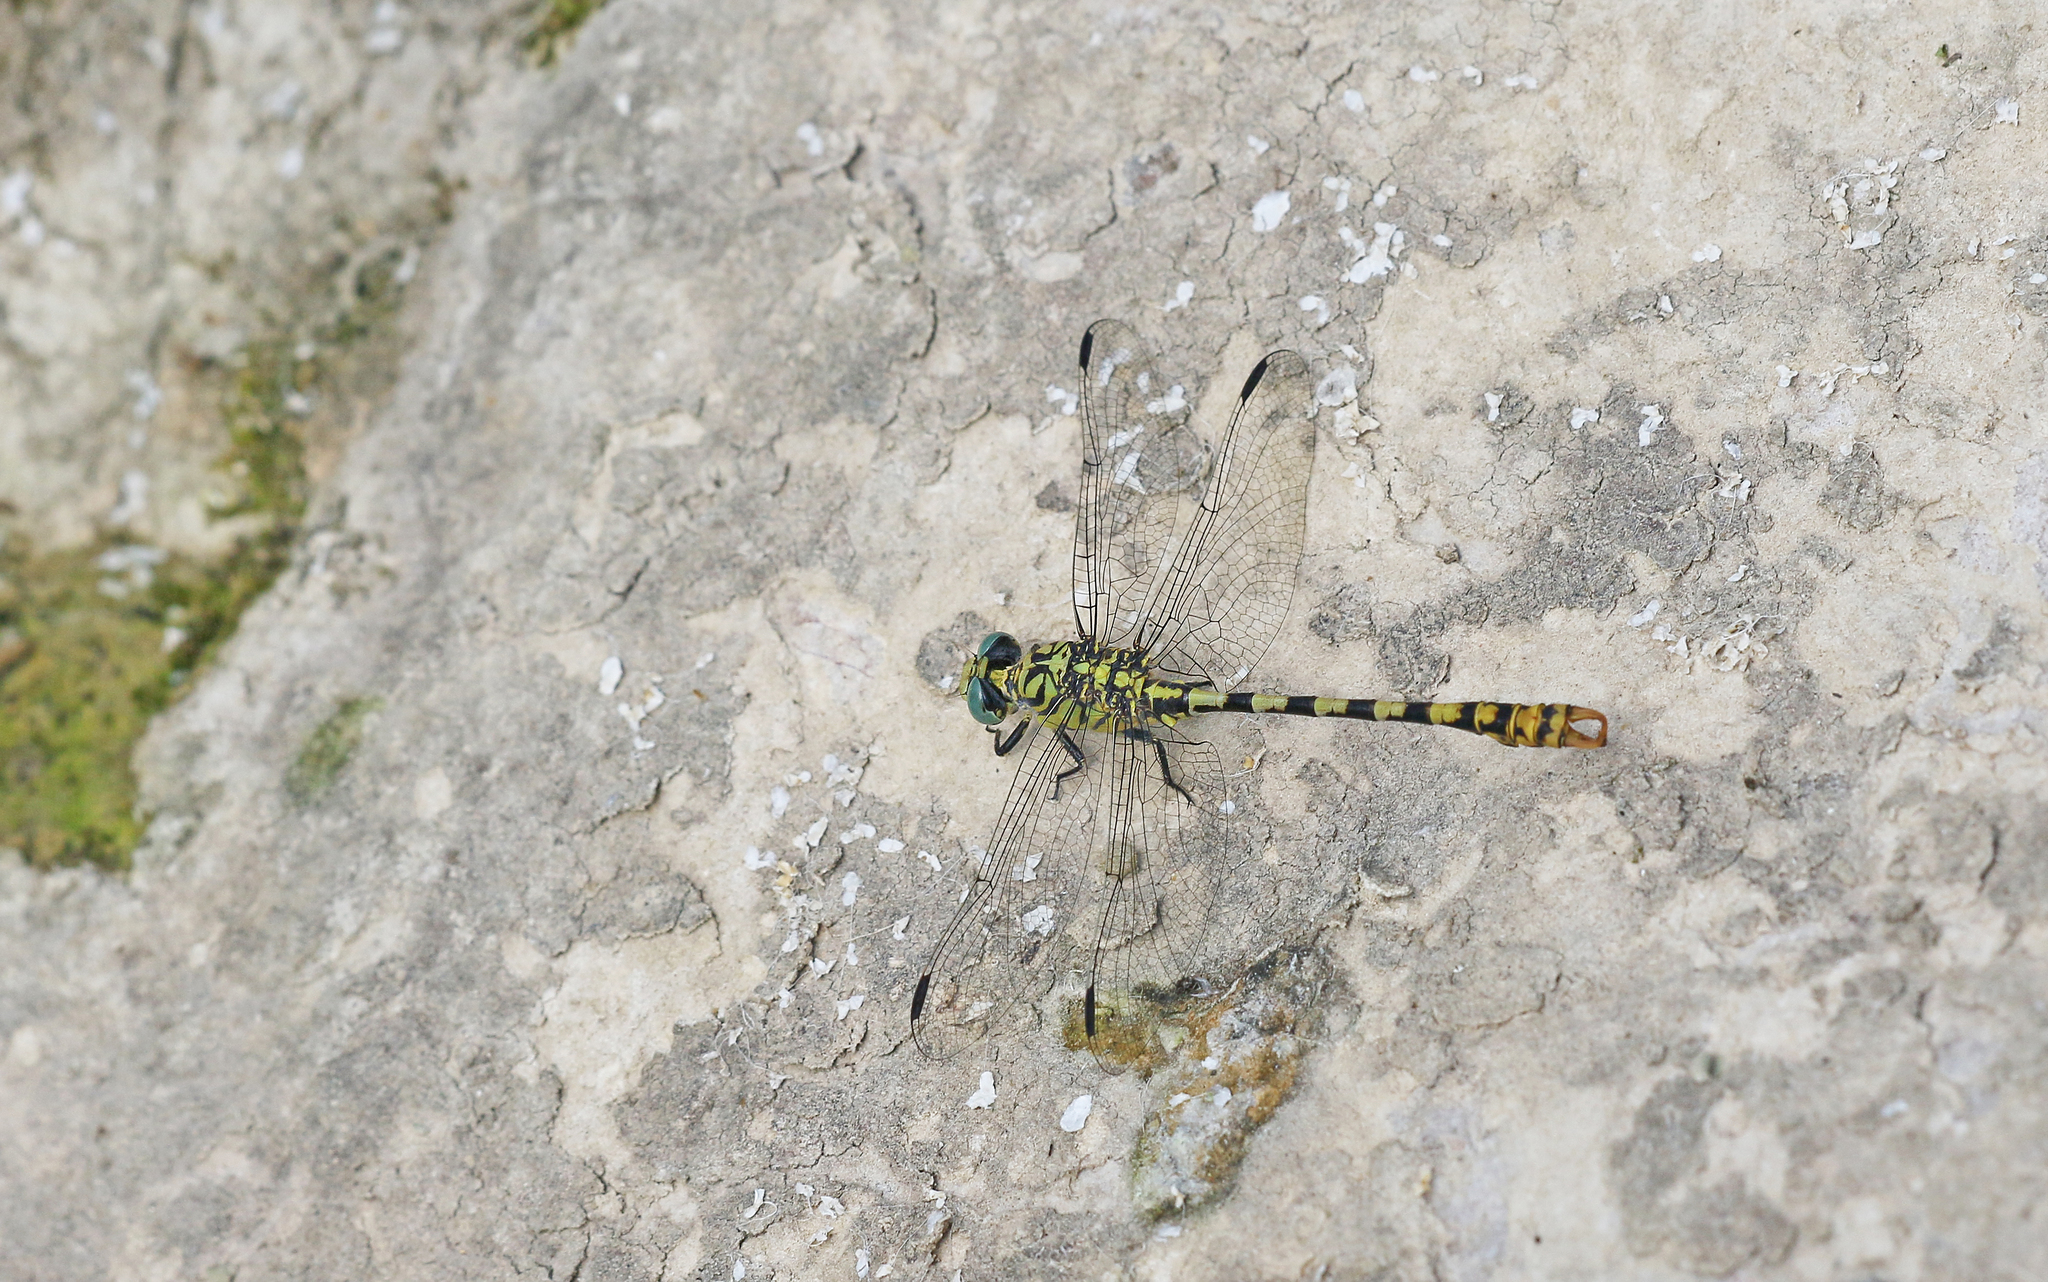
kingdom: Animalia
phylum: Arthropoda
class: Insecta
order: Odonata
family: Gomphidae
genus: Onychogomphus
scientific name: Onychogomphus forcipatus
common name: Small pincertail
